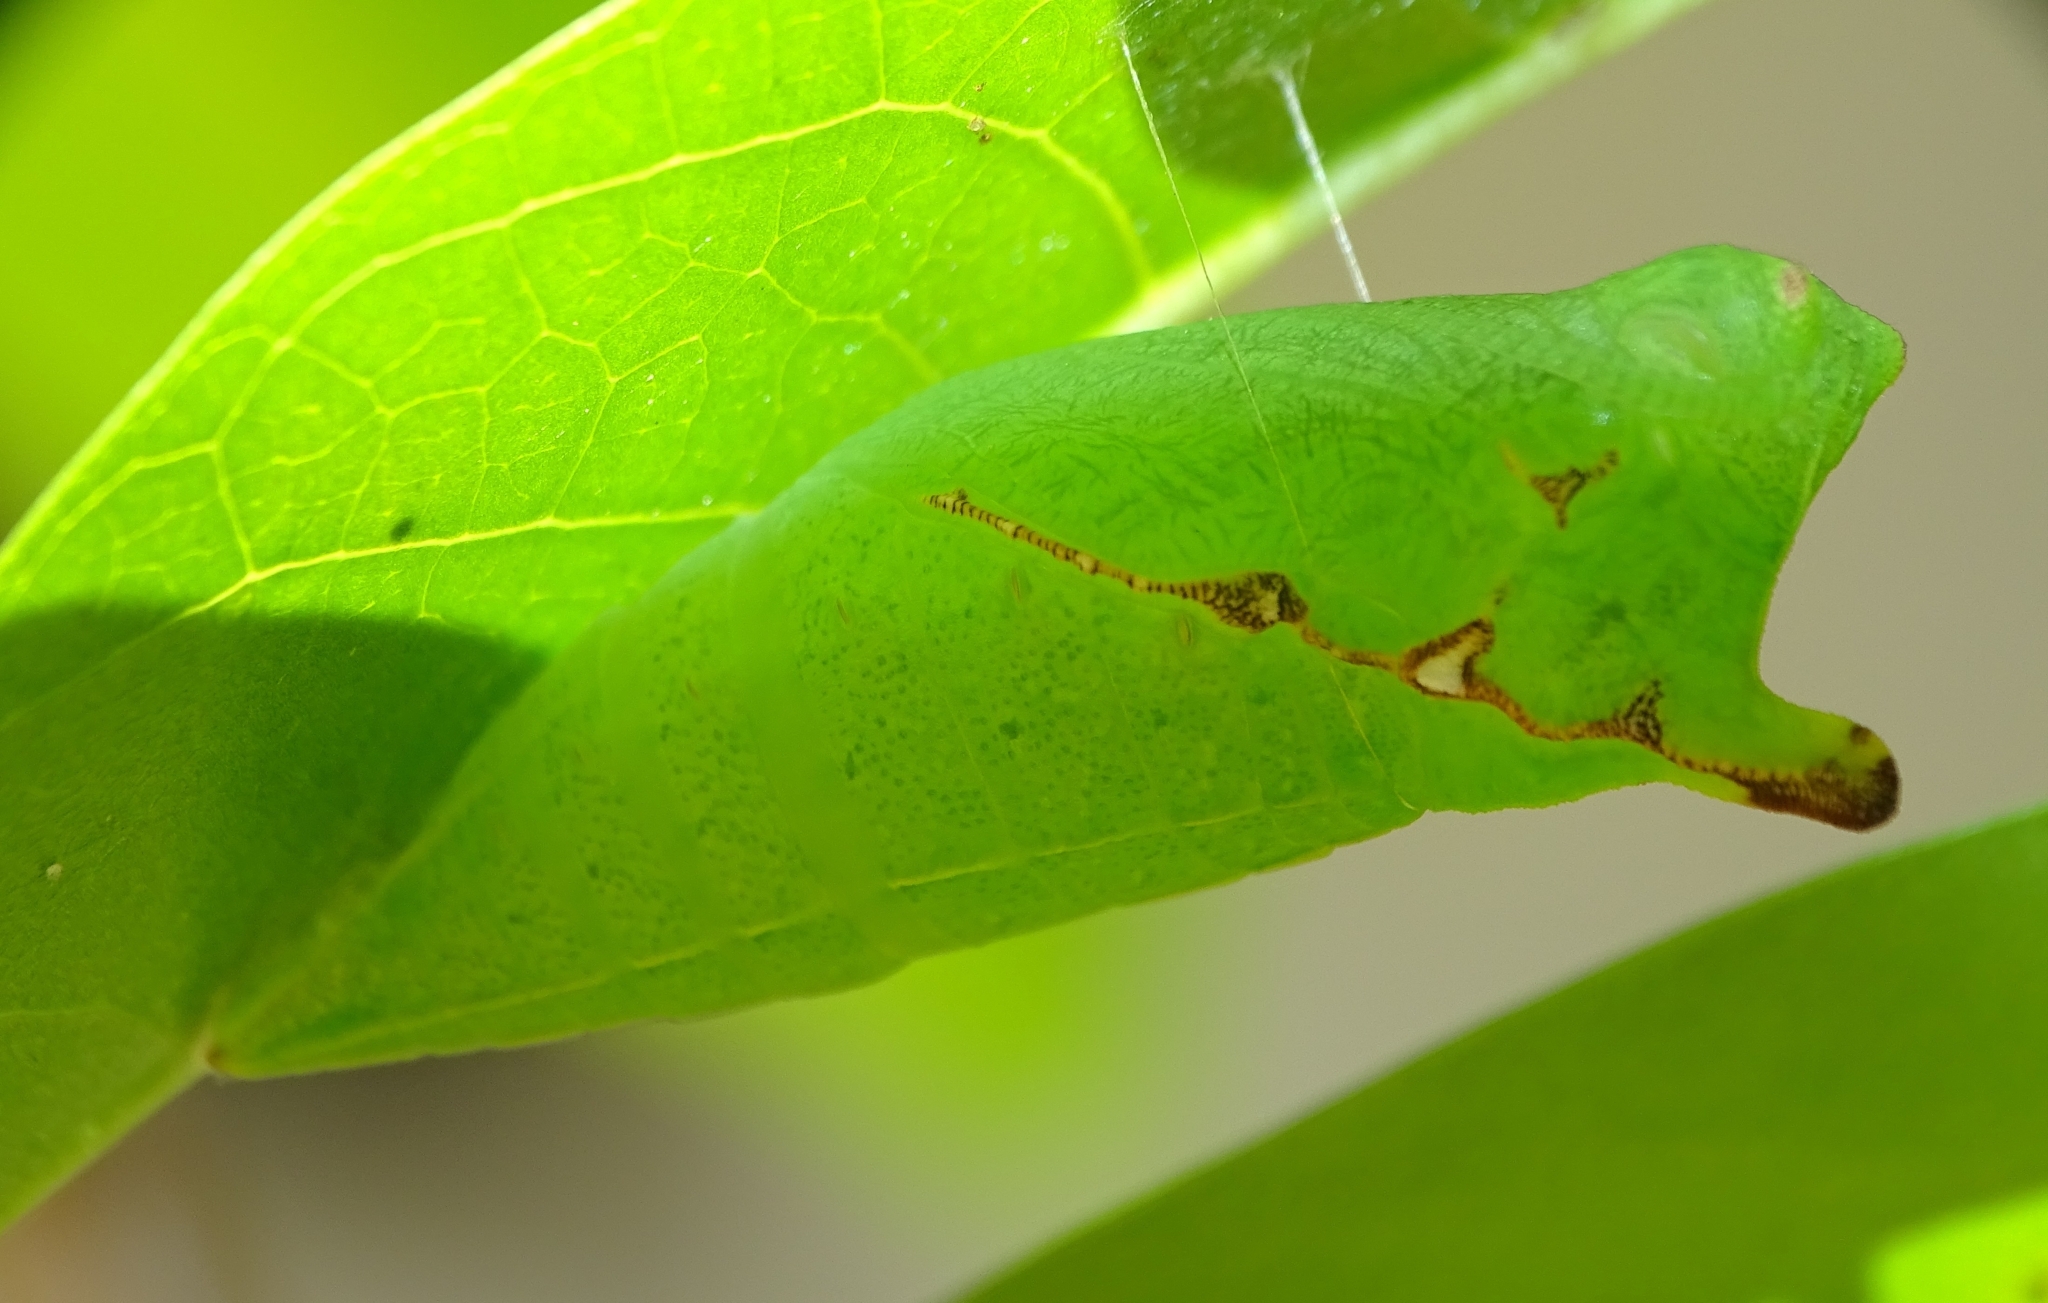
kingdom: Animalia
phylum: Arthropoda
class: Insecta
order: Lepidoptera
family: Papilionidae
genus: Graphium
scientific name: Graphium agamemnon
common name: Tailed jay
